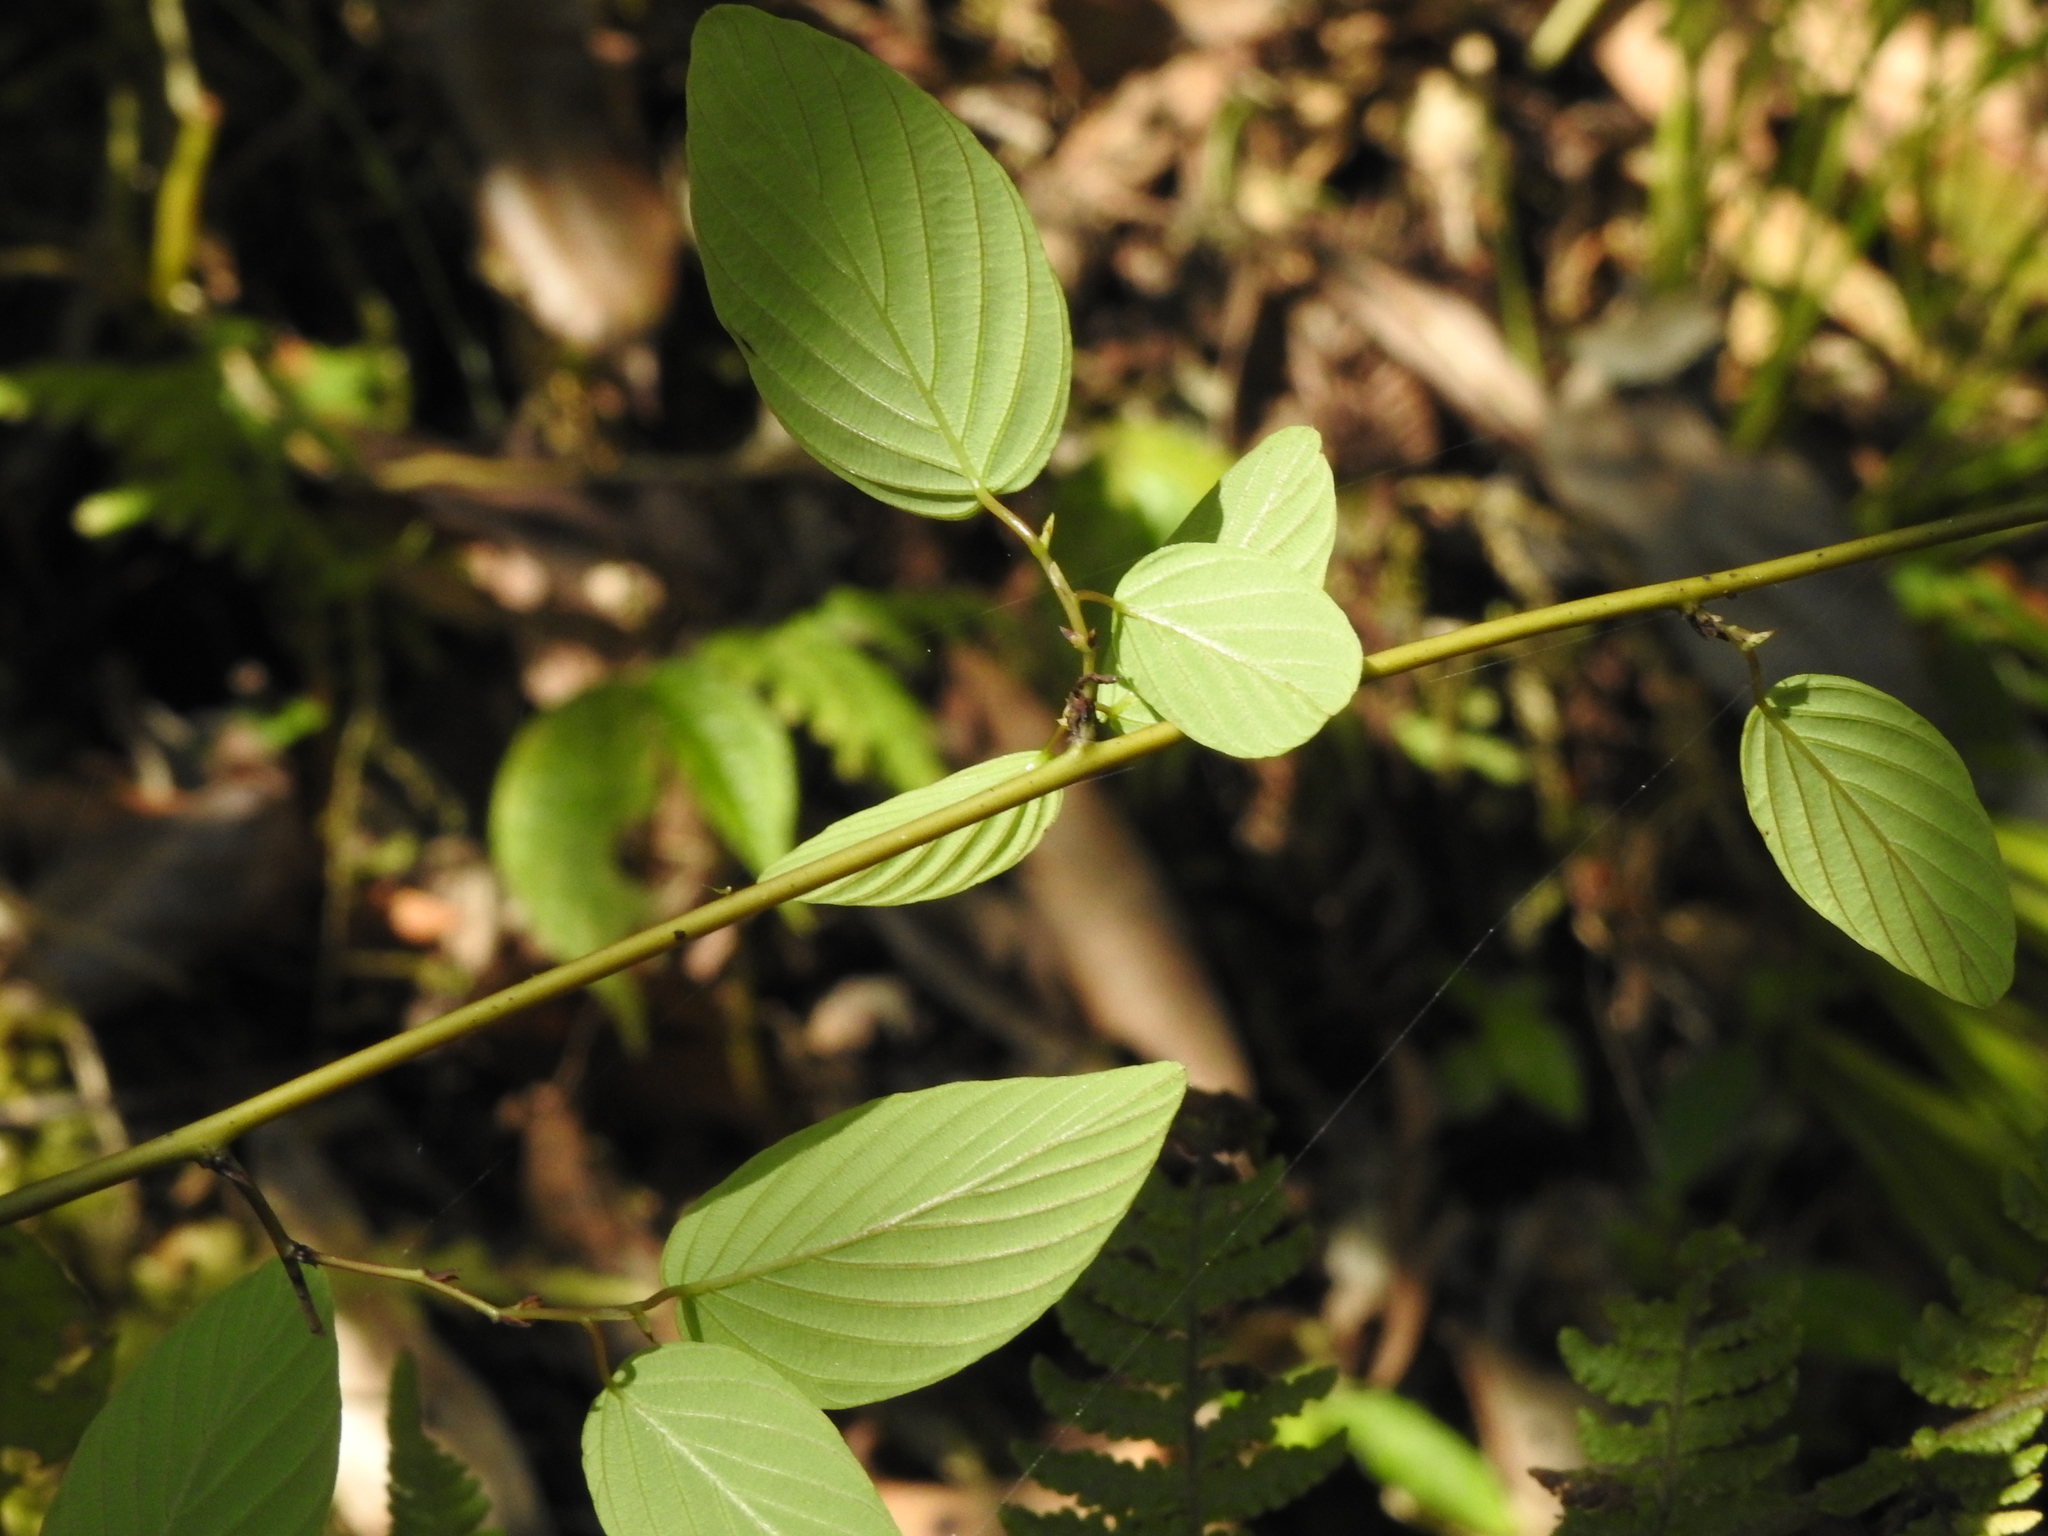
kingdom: Plantae
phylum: Tracheophyta
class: Magnoliopsida
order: Rosales
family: Rhamnaceae
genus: Berchemia
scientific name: Berchemia formosana
